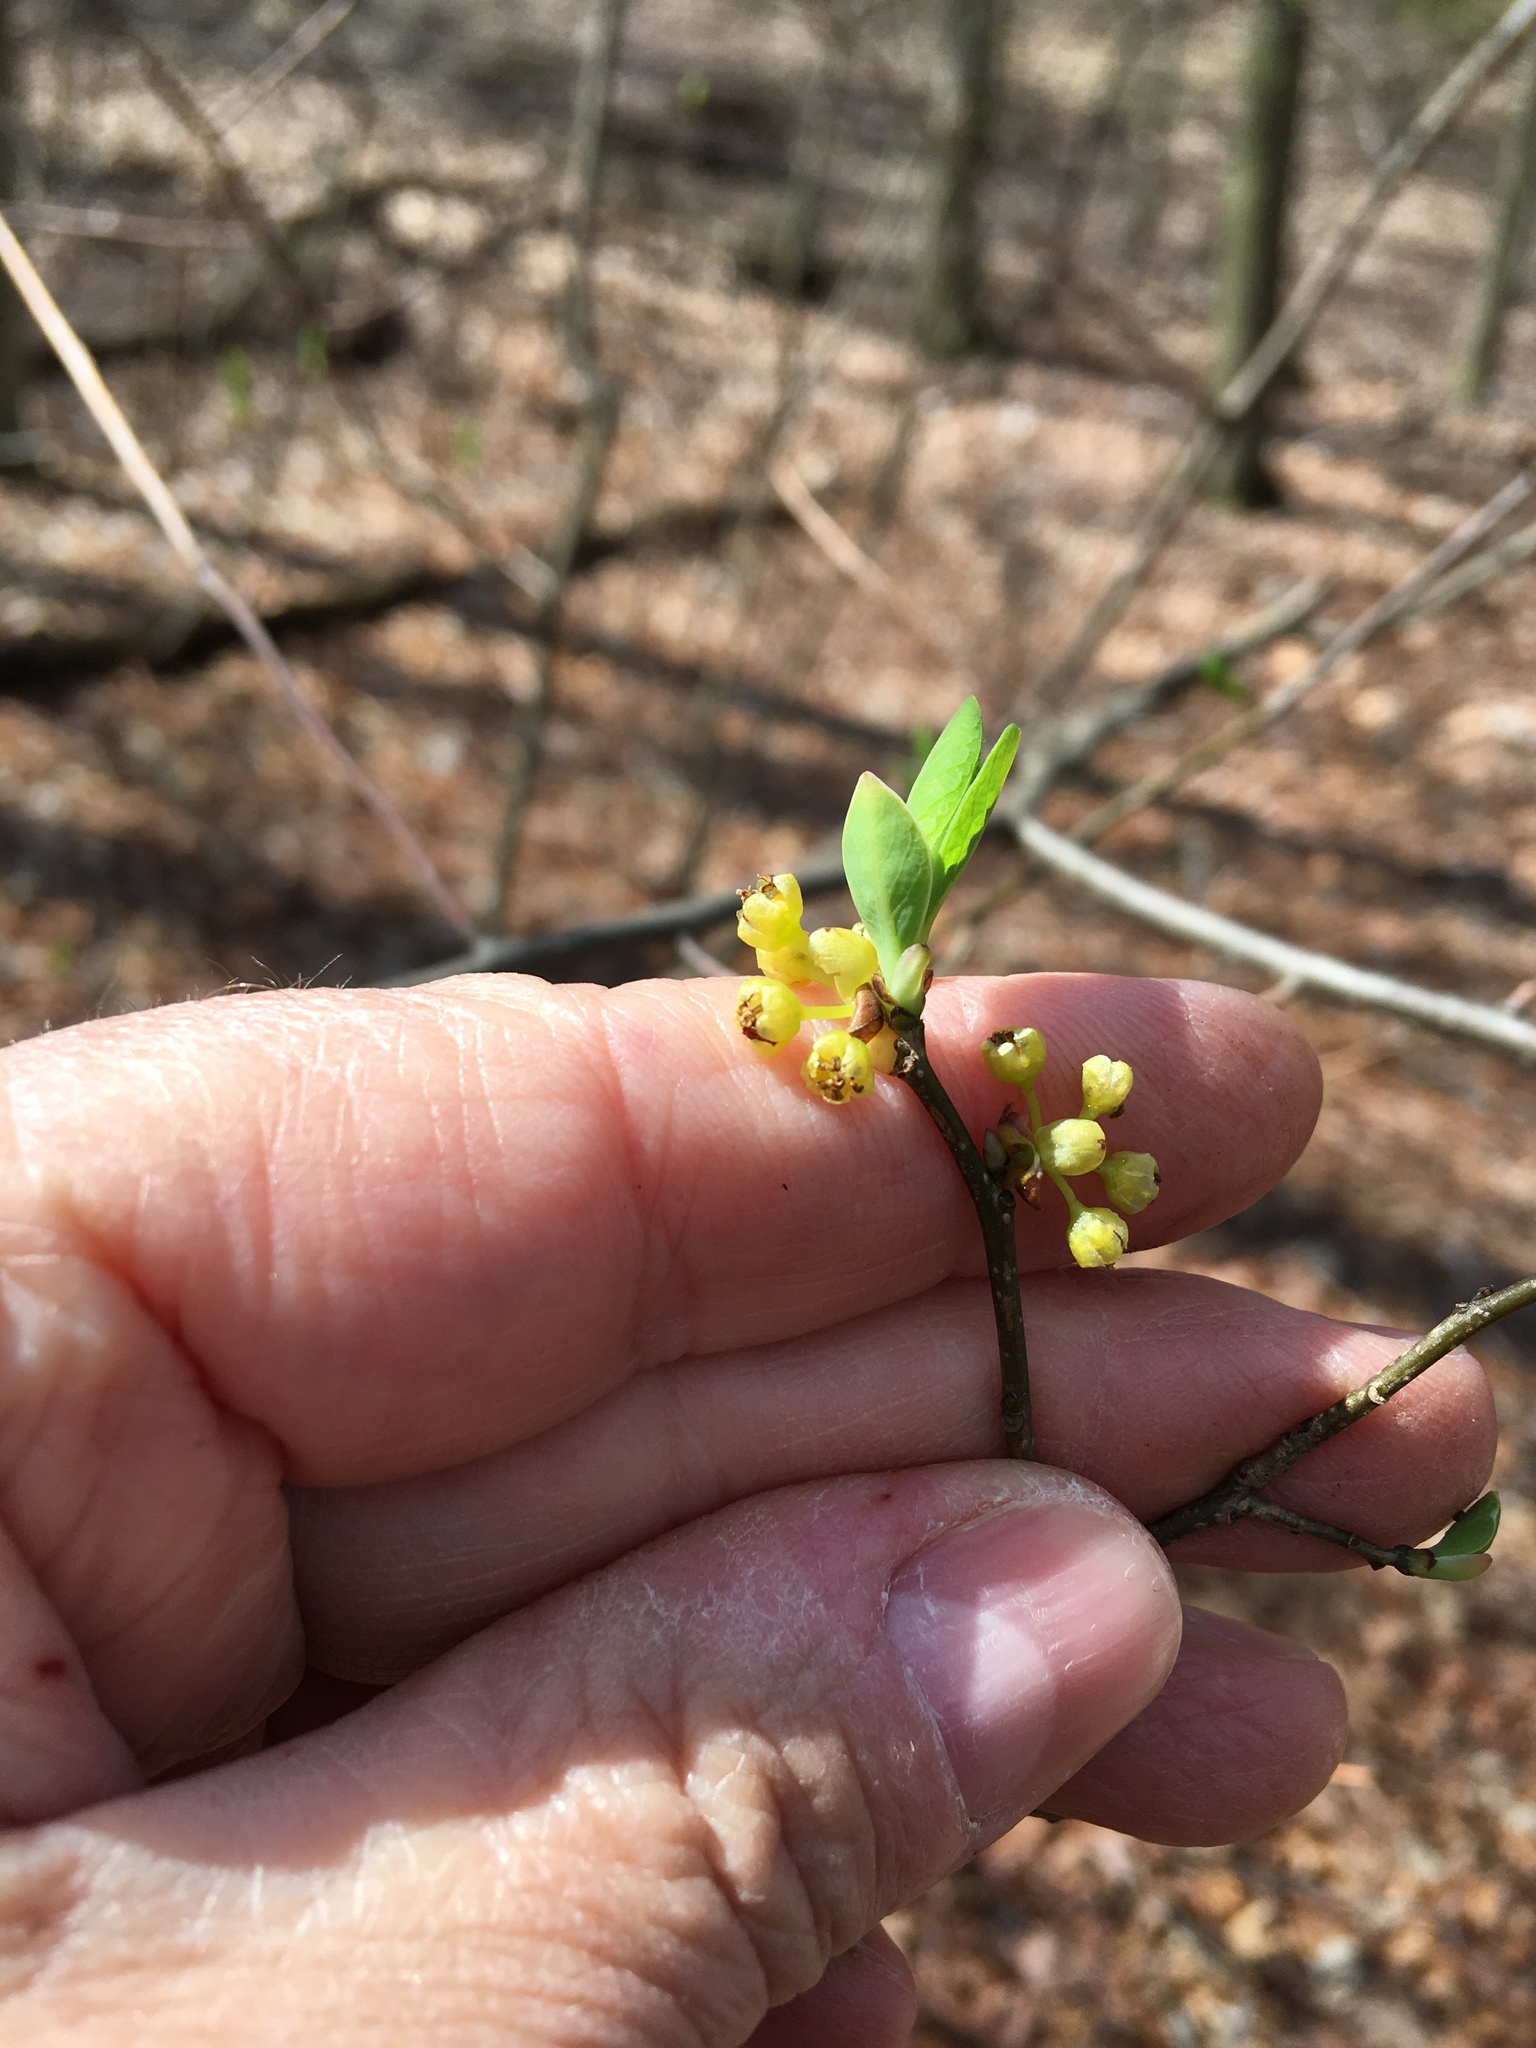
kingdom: Plantae
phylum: Tracheophyta
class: Magnoliopsida
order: Laurales
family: Lauraceae
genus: Lindera
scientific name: Lindera benzoin
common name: Spicebush
